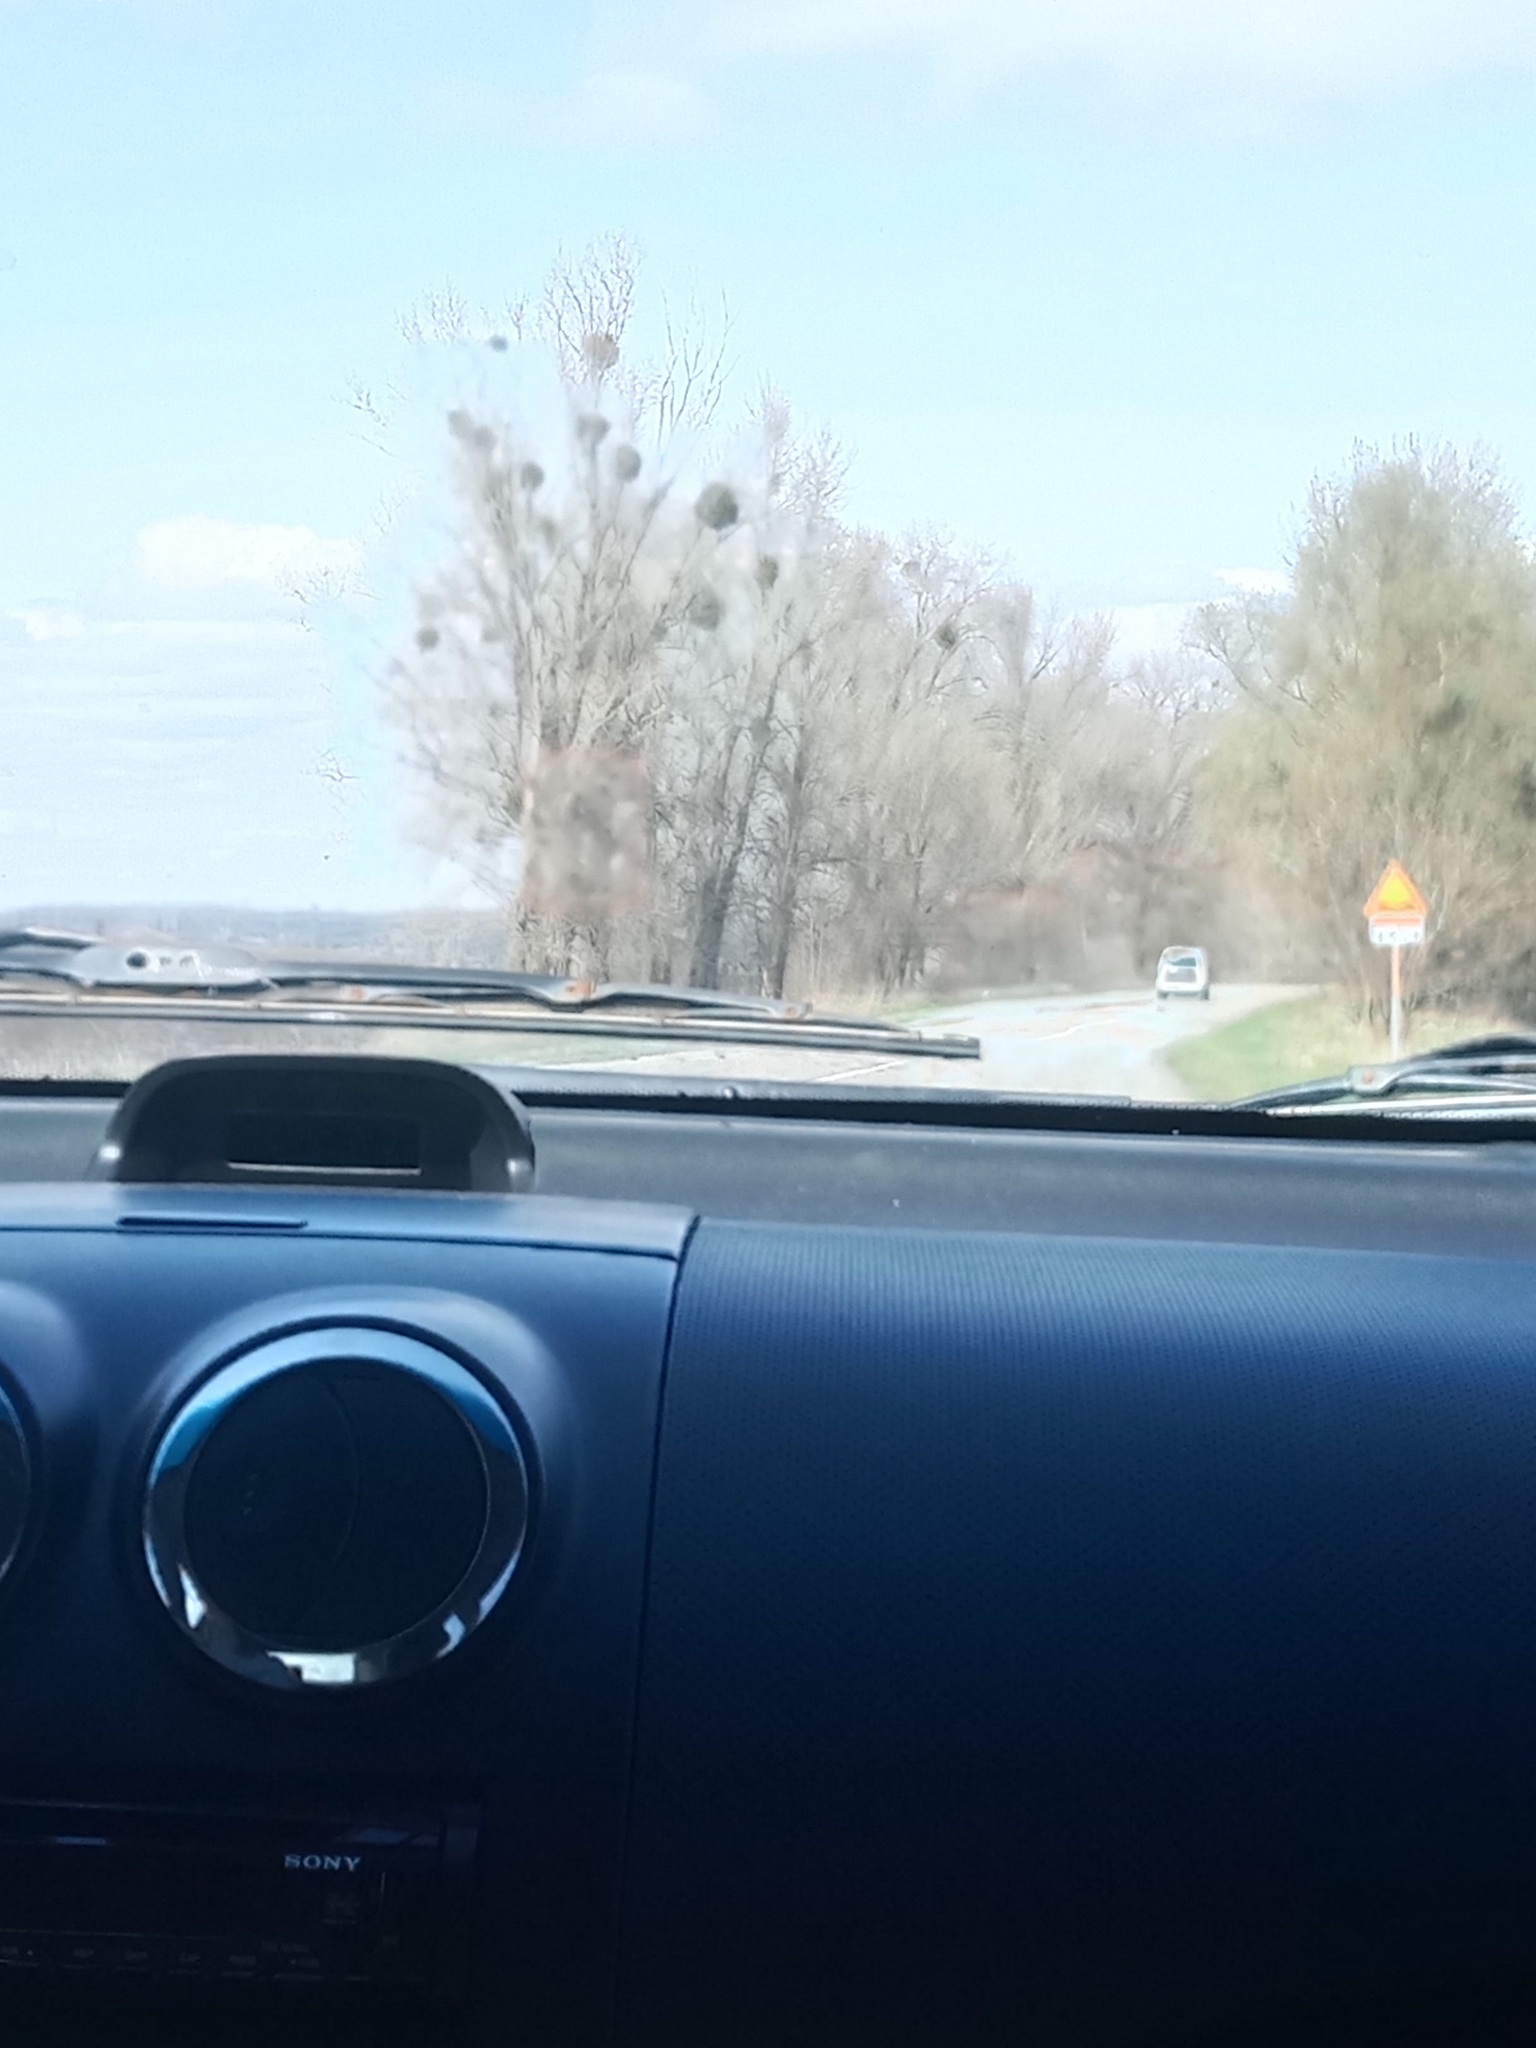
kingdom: Plantae
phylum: Tracheophyta
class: Magnoliopsida
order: Santalales
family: Viscaceae
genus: Viscum
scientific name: Viscum album
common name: Mistletoe
